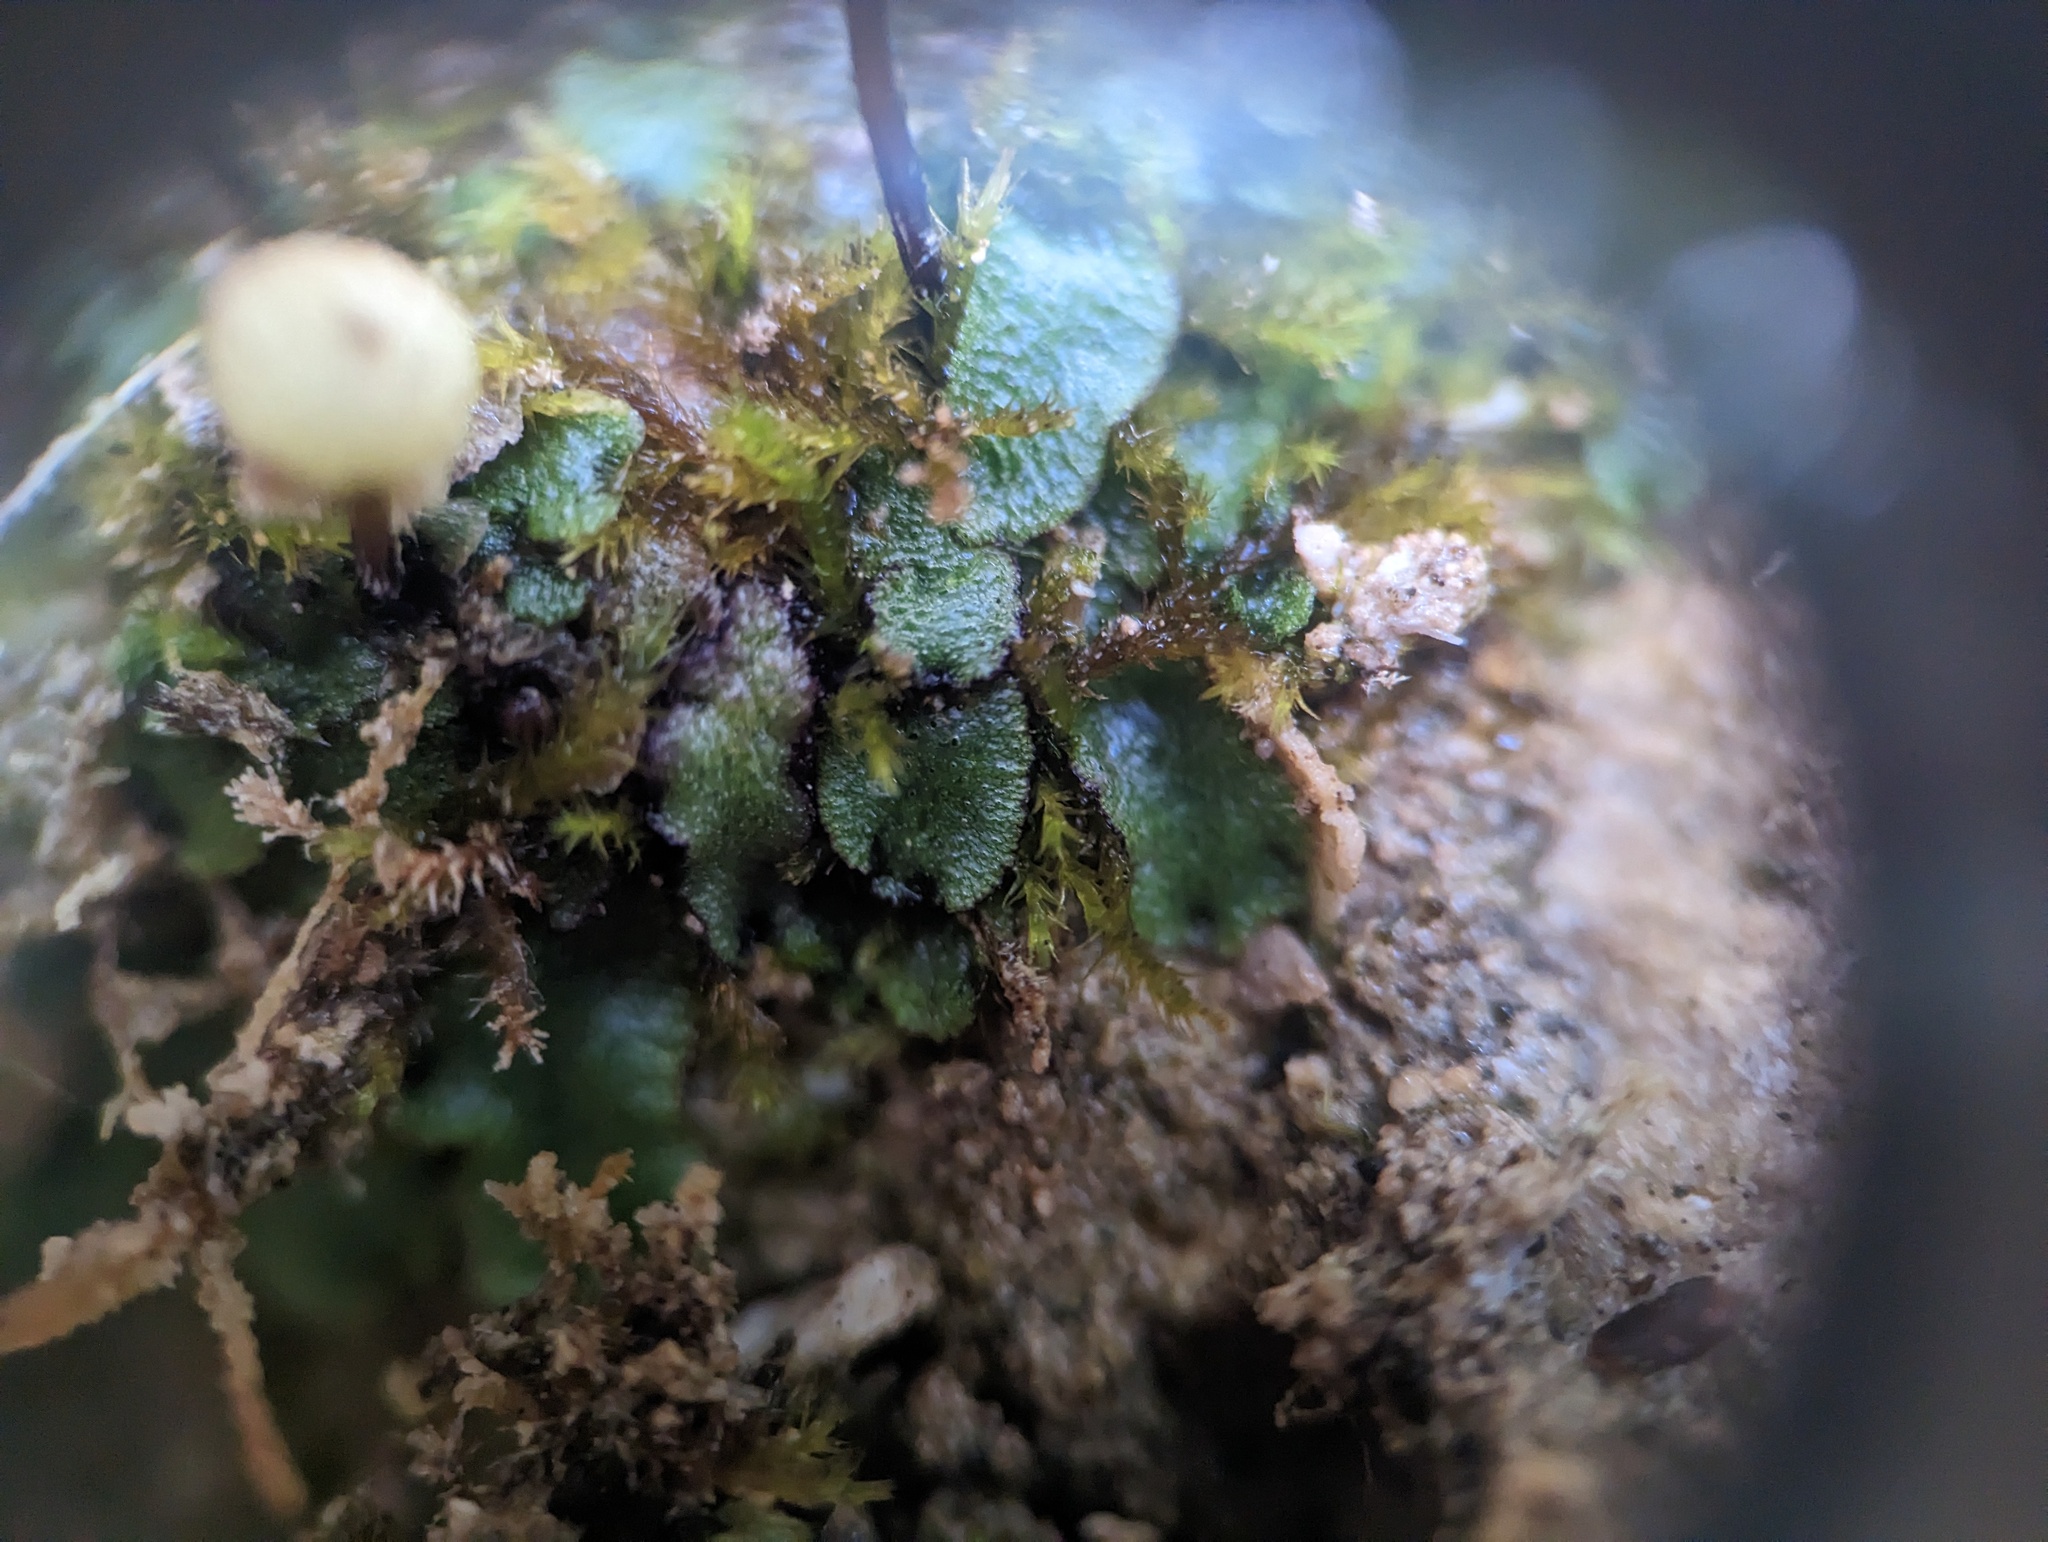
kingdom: Plantae
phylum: Marchantiophyta
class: Marchantiopsida
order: Marchantiales
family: Aytoniaceae
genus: Mannia
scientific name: Mannia triandra
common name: Field macewort
